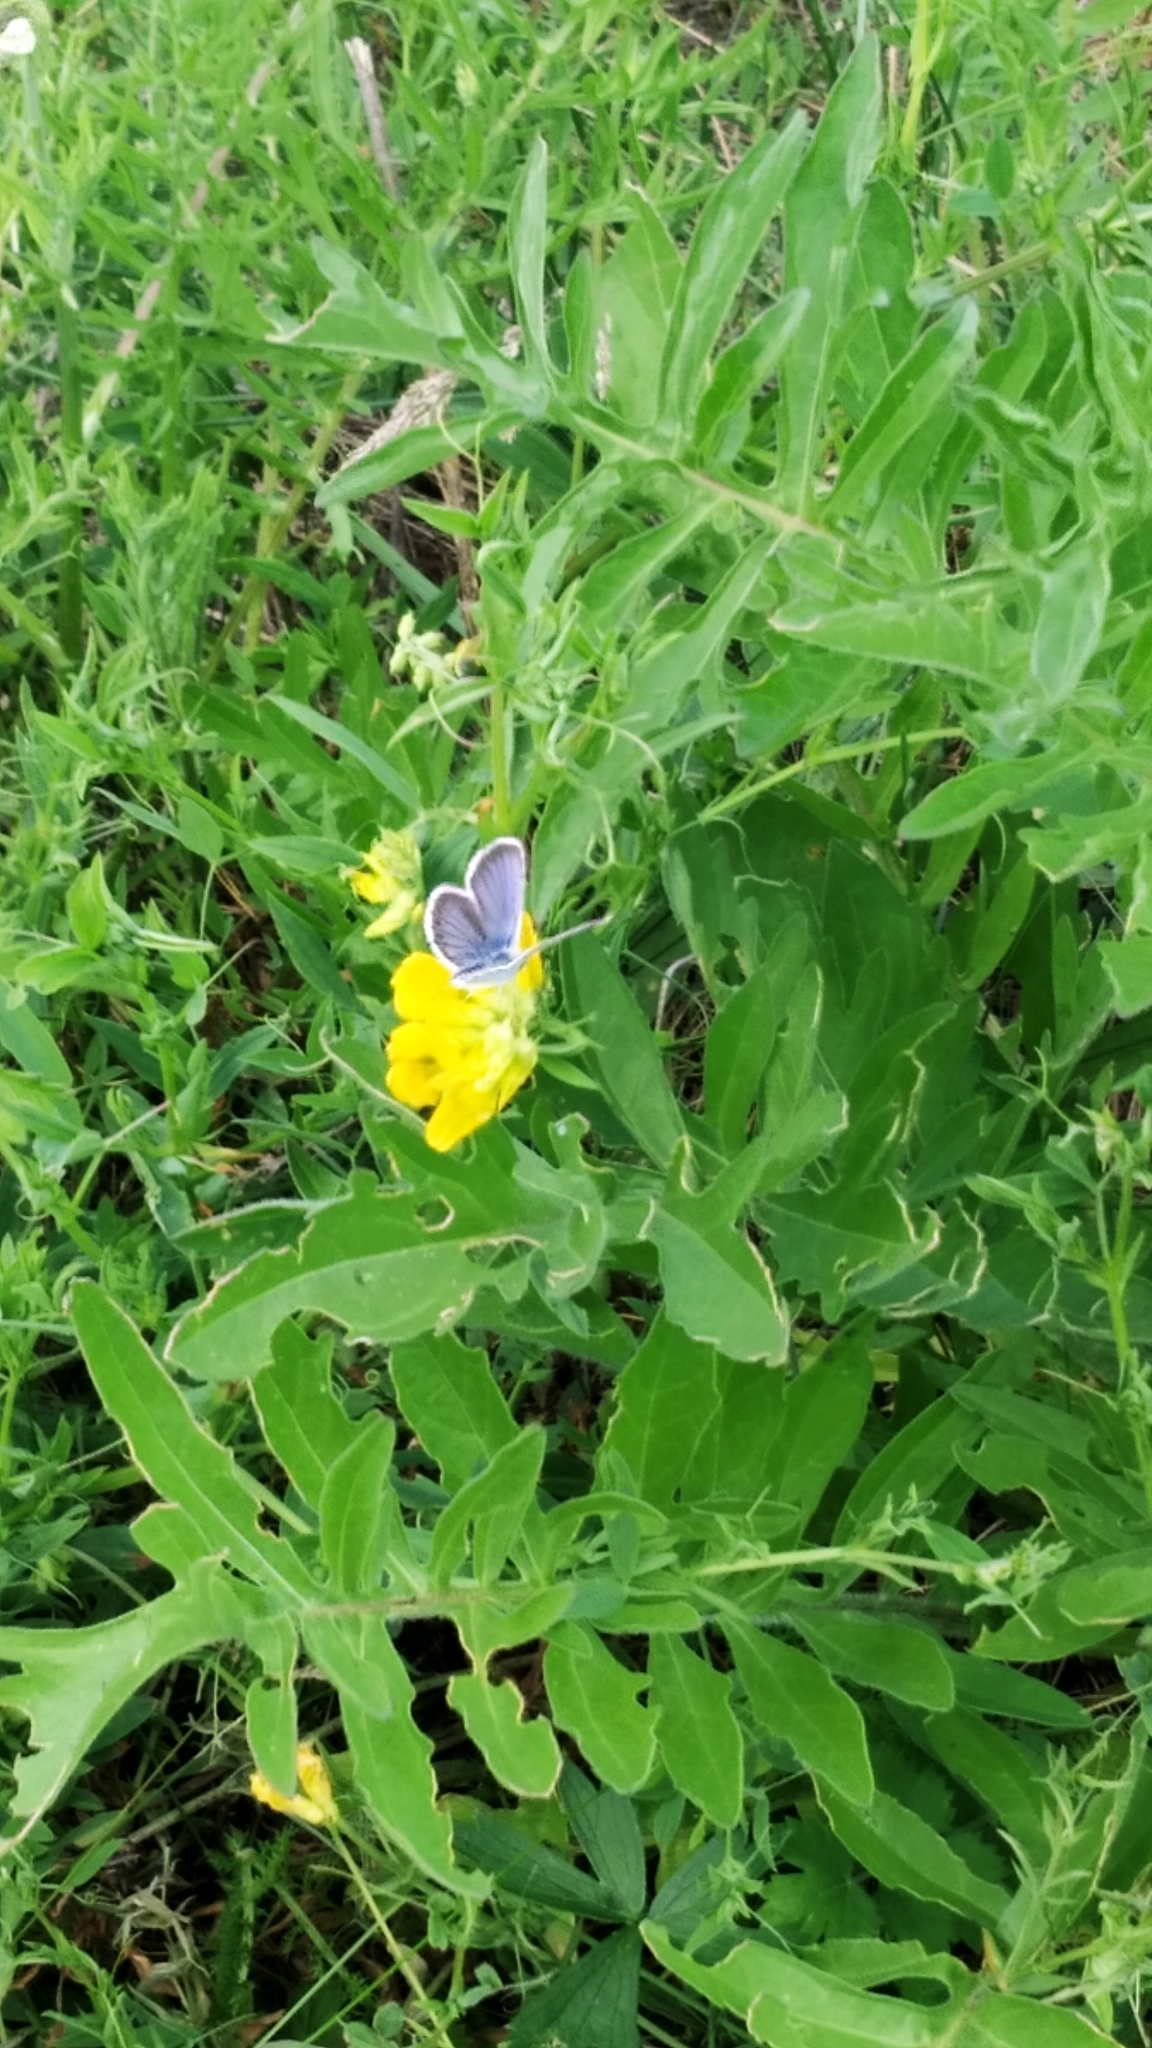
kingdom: Animalia
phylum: Arthropoda
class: Insecta
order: Lepidoptera
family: Lycaenidae
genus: Plebejus
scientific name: Plebejus argus
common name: Silver-studded blue
